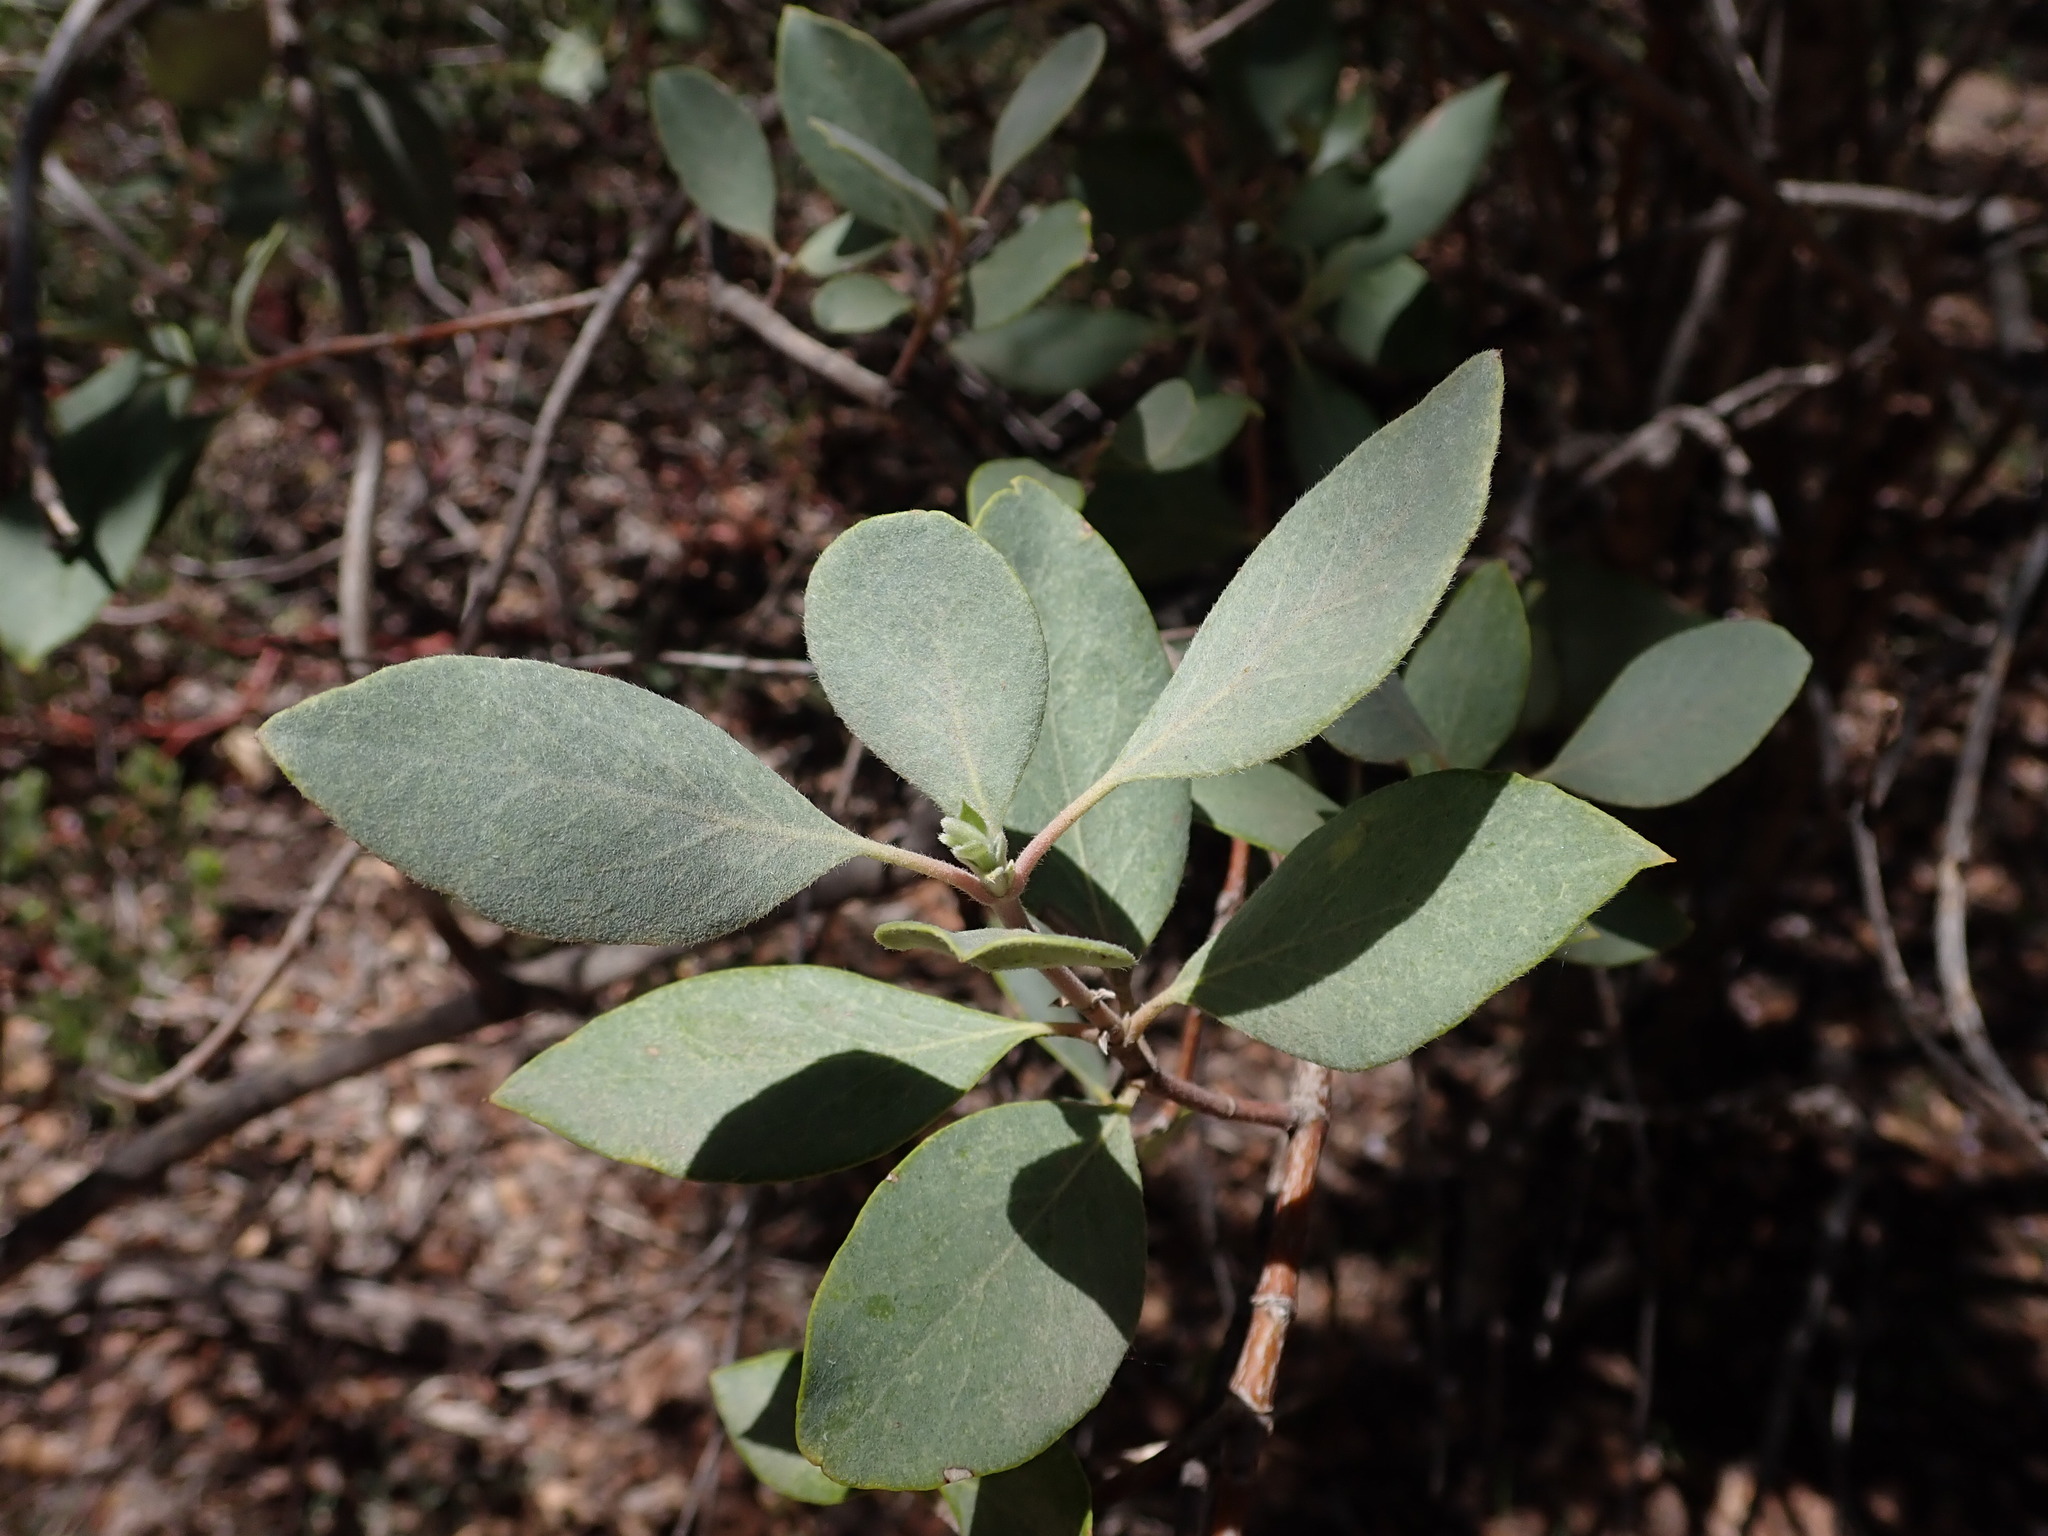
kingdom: Plantae
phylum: Tracheophyta
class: Magnoliopsida
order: Garryales
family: Garryaceae
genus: Garrya
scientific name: Garrya flavescens
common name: Ashy silk-tassel
